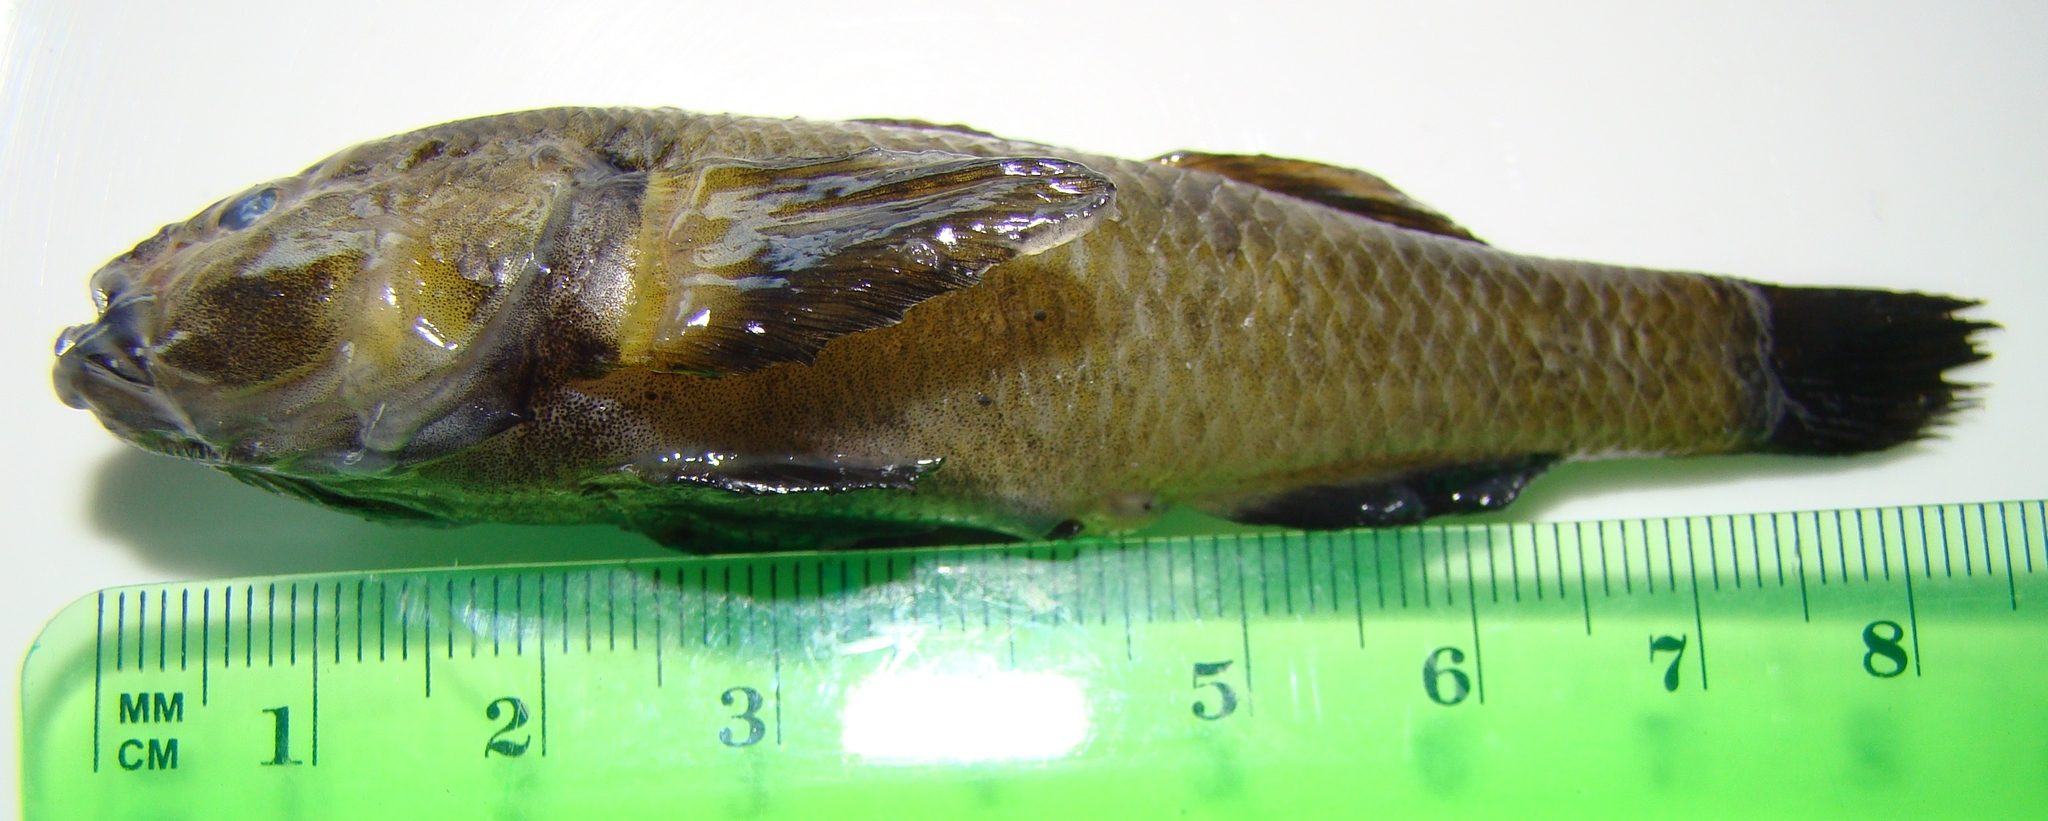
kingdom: Animalia
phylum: Chordata
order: Perciformes
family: Eleotridae
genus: Gobiomorphus
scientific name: Gobiomorphus
